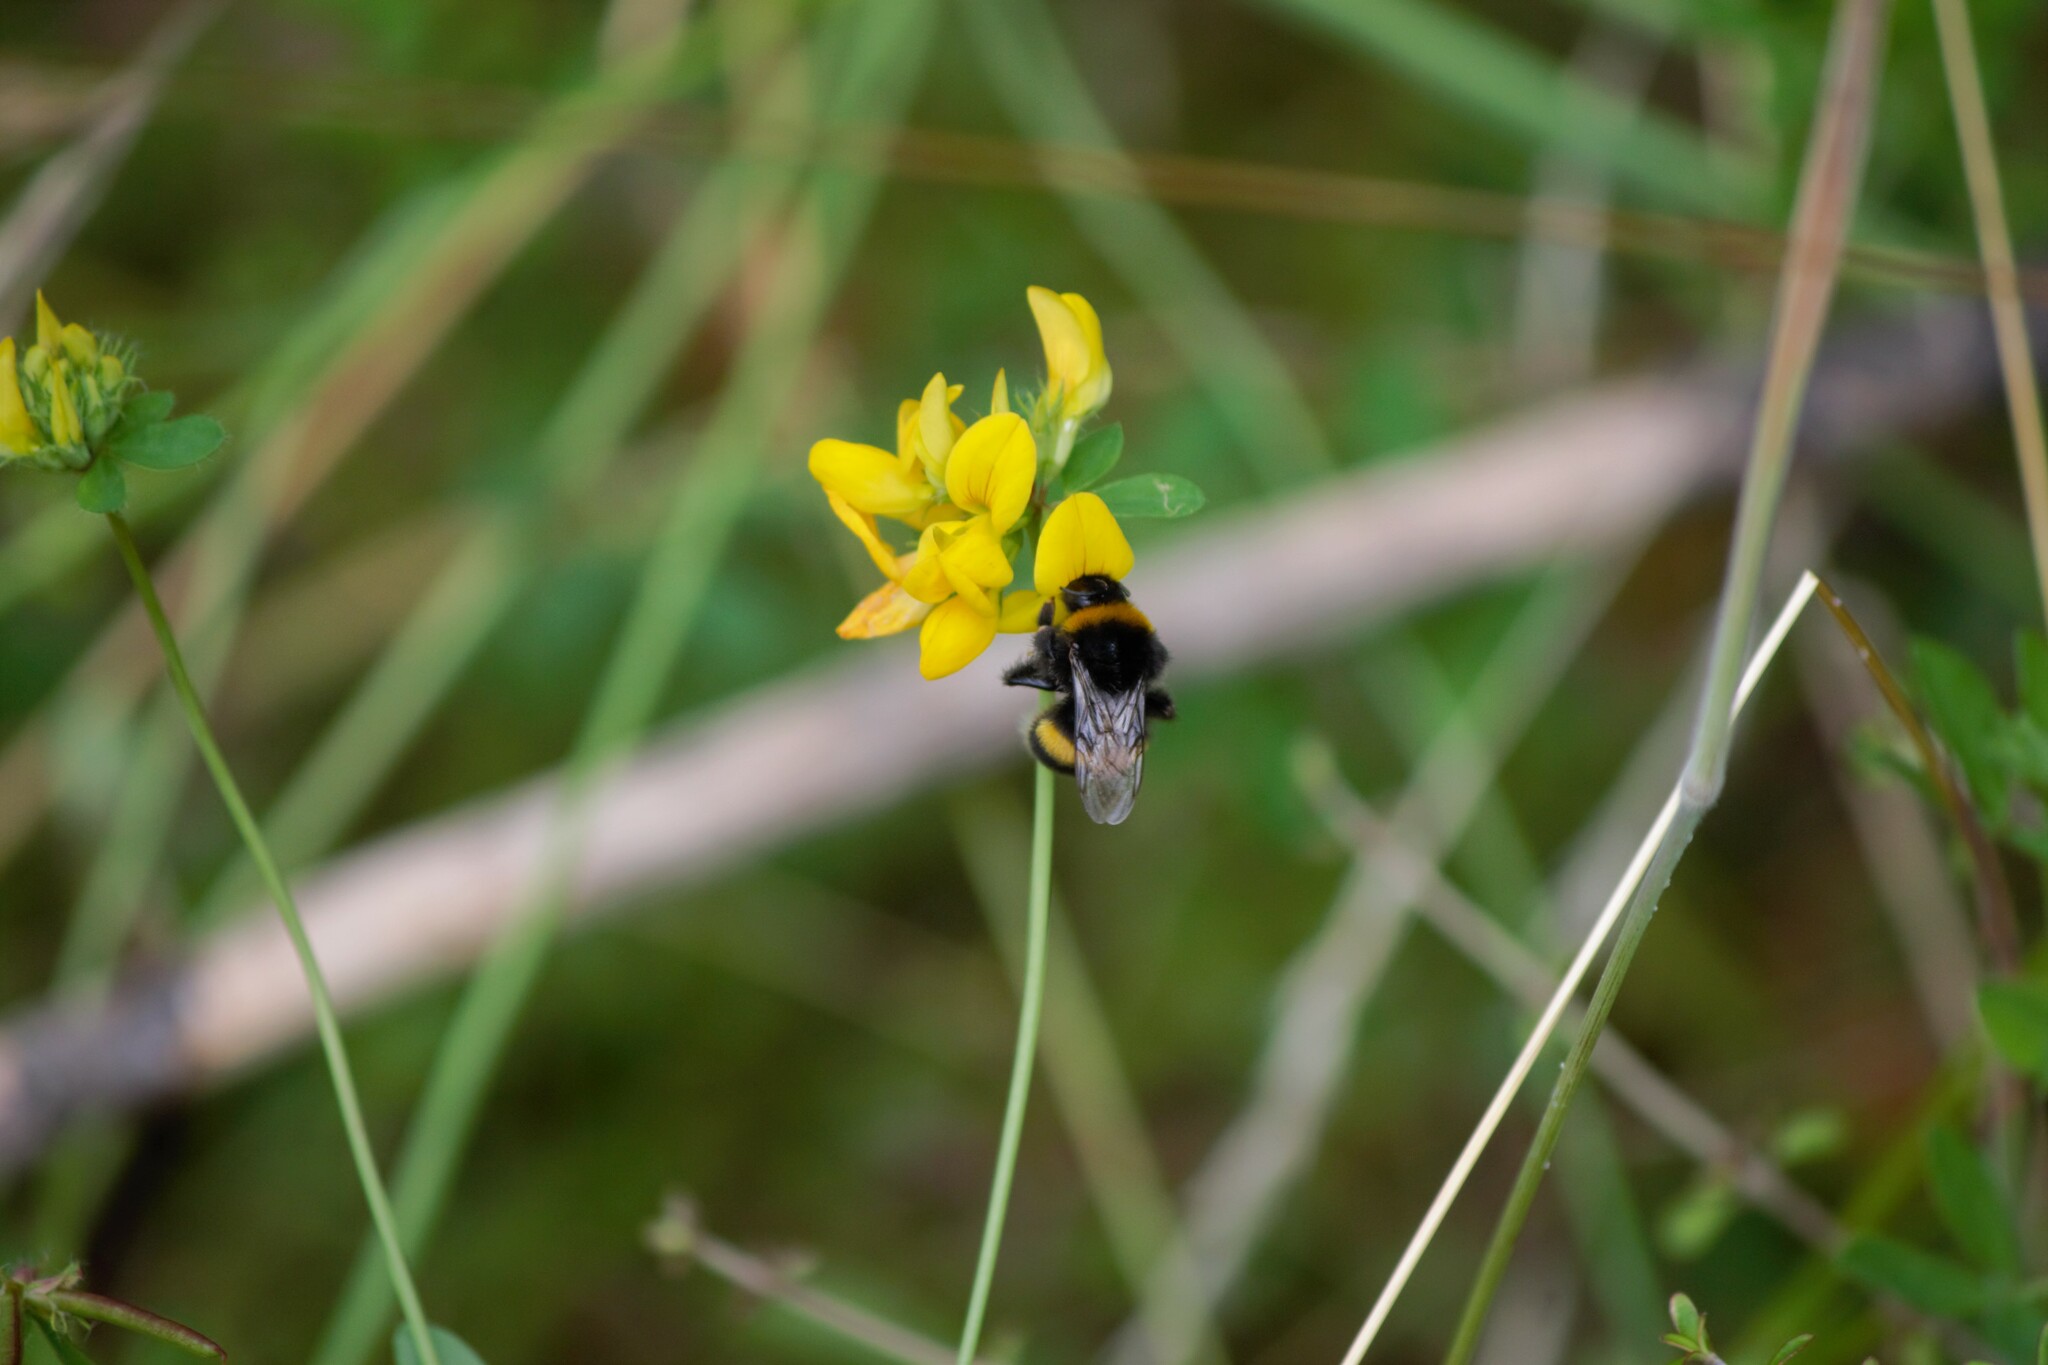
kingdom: Animalia
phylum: Arthropoda
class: Insecta
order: Hymenoptera
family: Apidae
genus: Bombus
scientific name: Bombus terrestris
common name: Buff-tailed bumblebee
